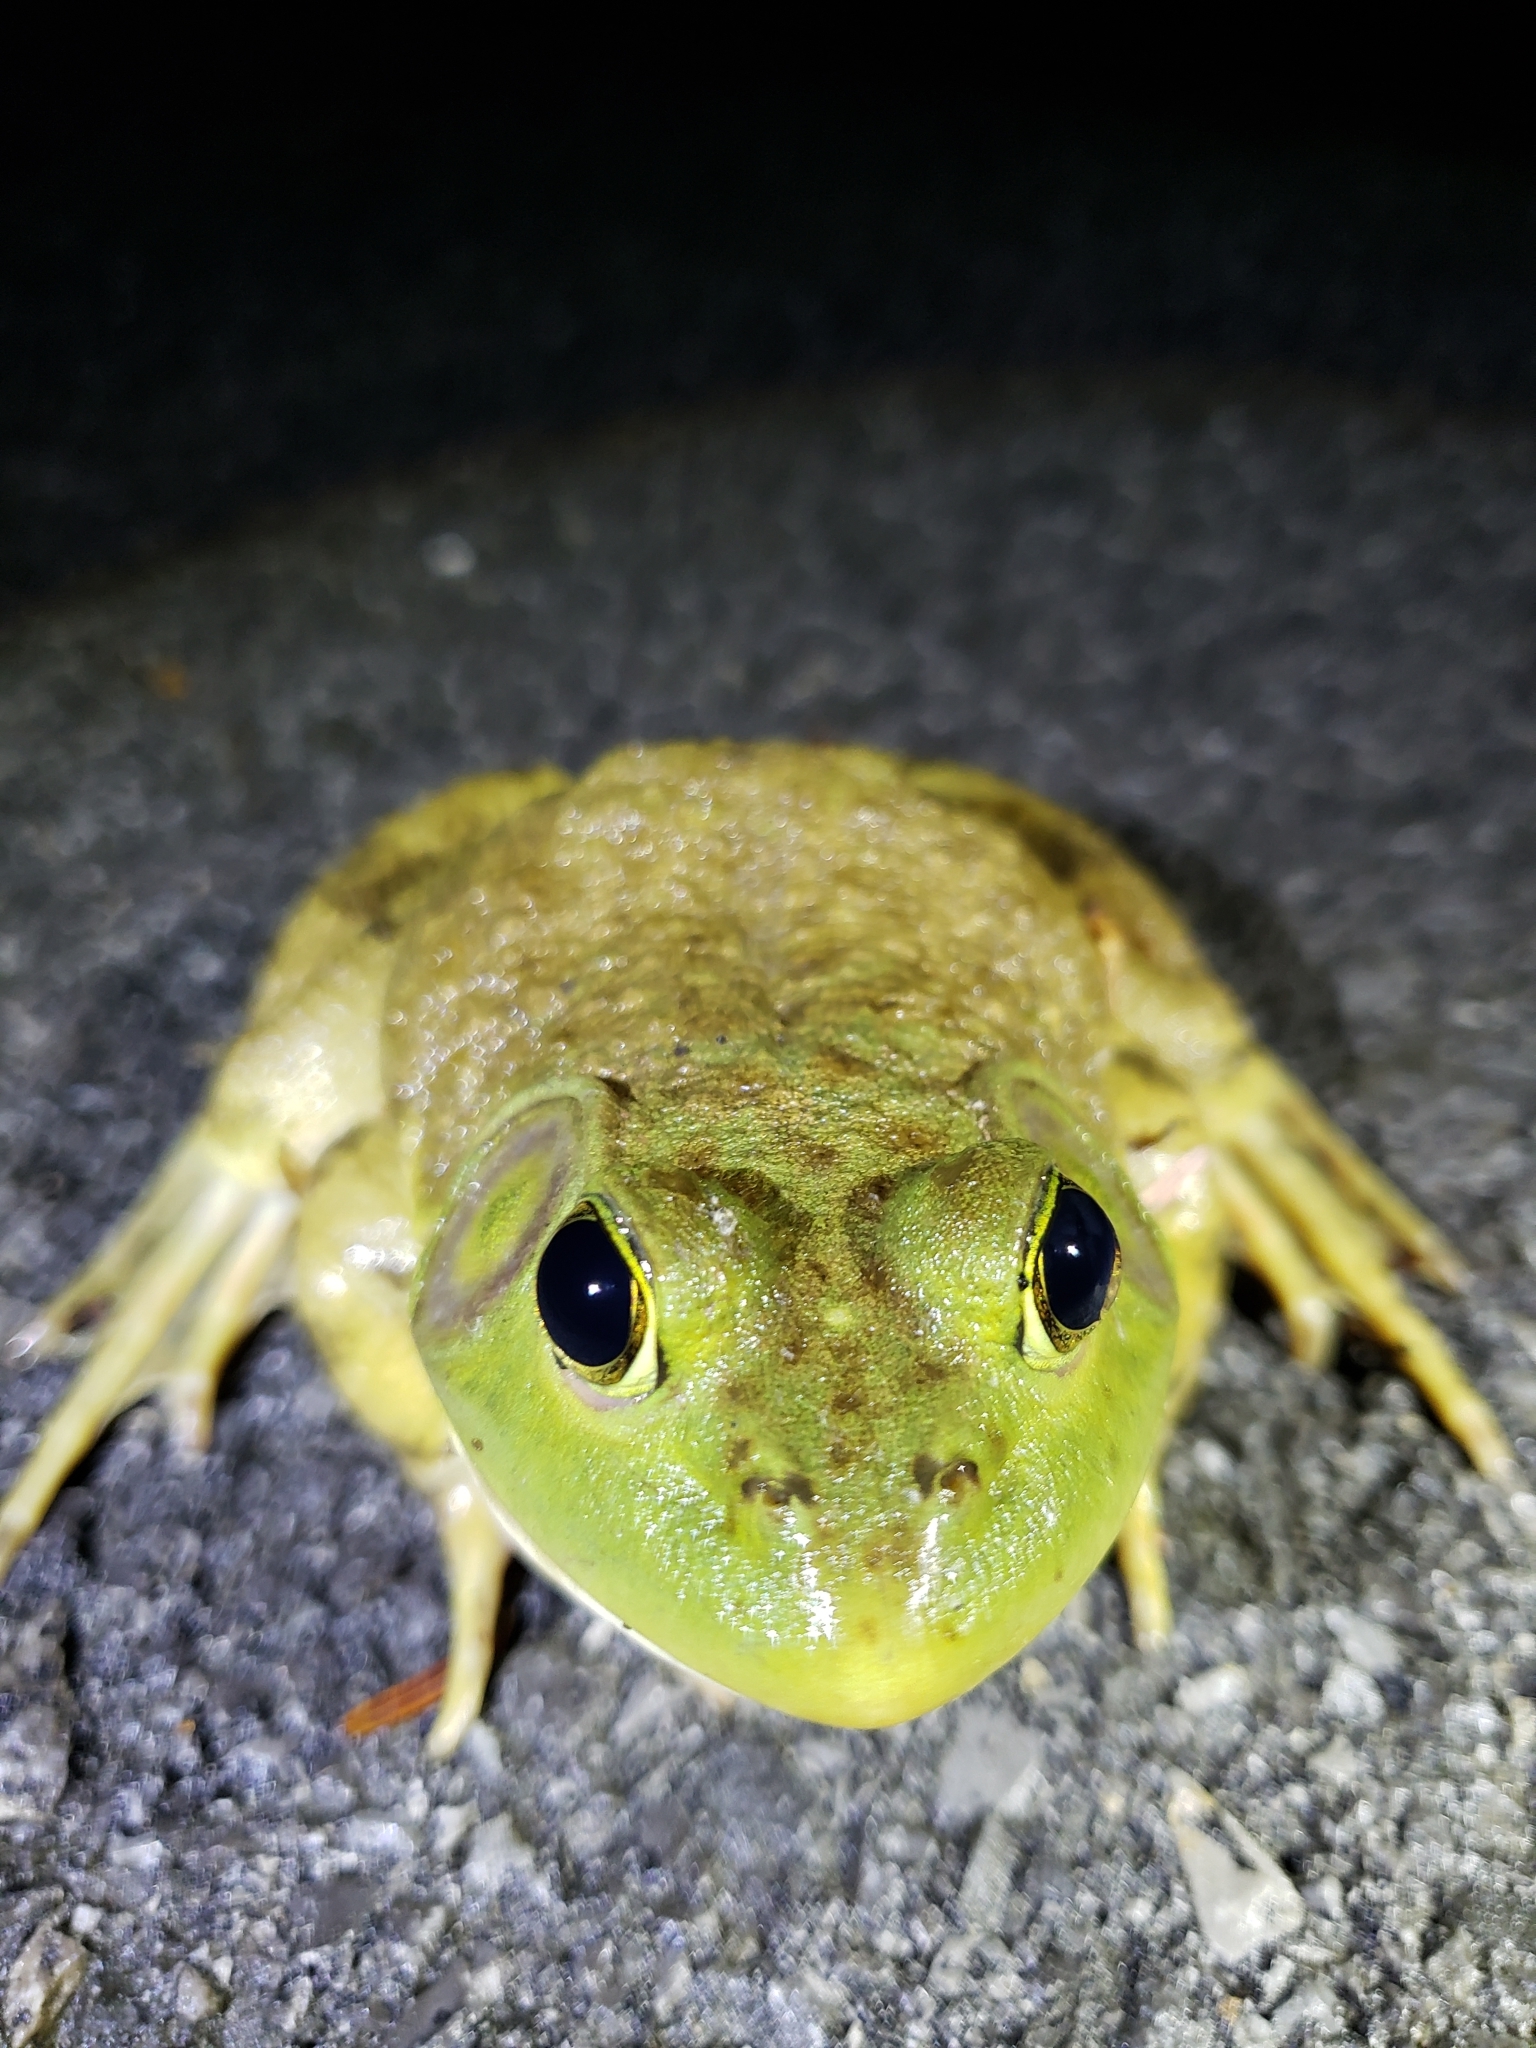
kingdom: Animalia
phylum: Chordata
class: Amphibia
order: Anura
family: Ranidae
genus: Lithobates
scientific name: Lithobates catesbeianus
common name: American bullfrog
